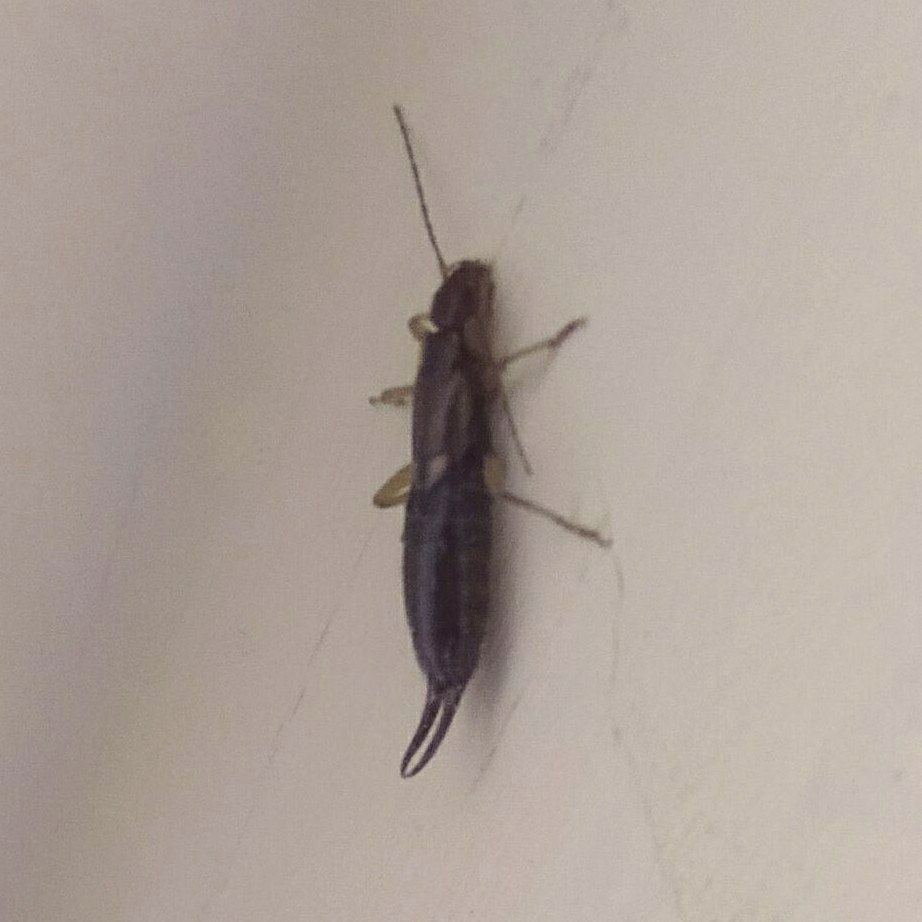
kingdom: Animalia
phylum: Arthropoda
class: Insecta
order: Dermaptera
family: Forficulidae
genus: Forficula
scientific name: Forficula
